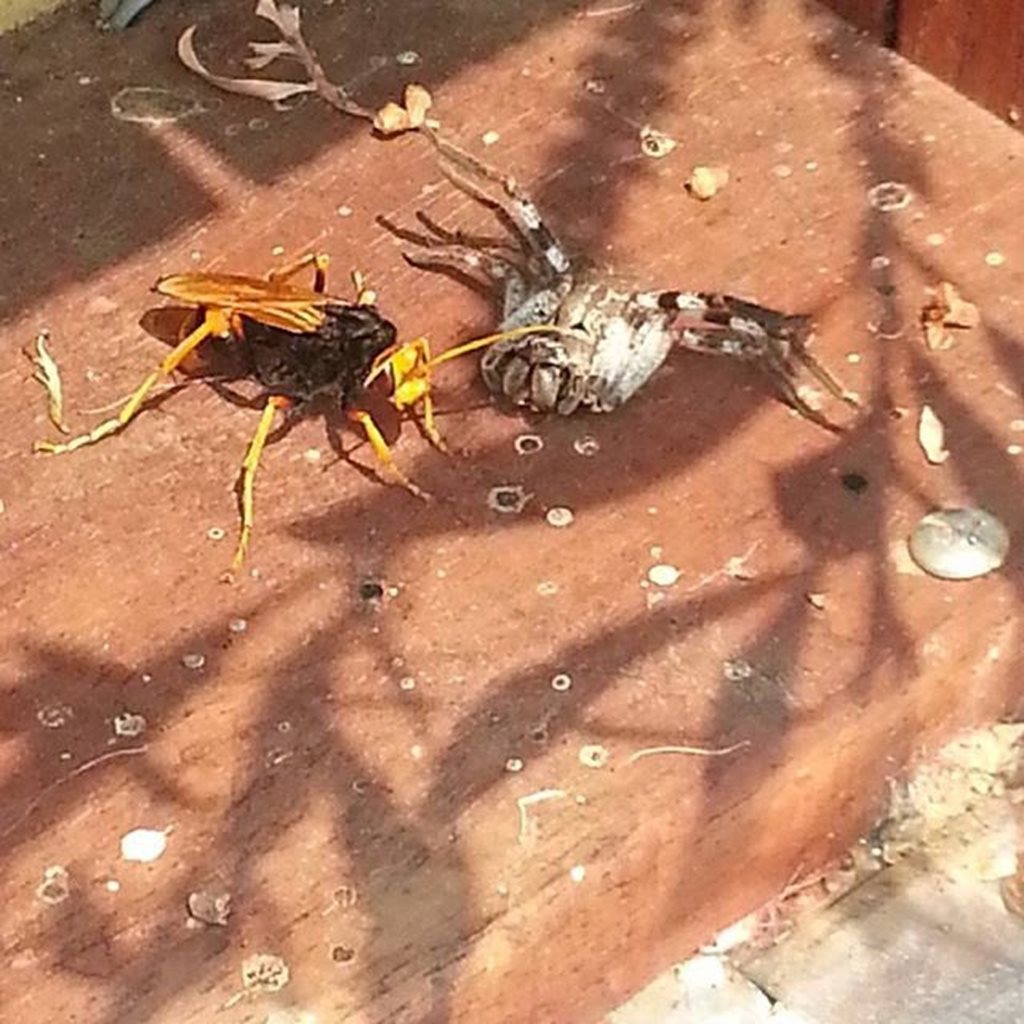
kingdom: Animalia
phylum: Arthropoda
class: Insecta
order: Hymenoptera
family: Pompilidae
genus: Cryptocheilus
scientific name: Cryptocheilus octomaculatus
